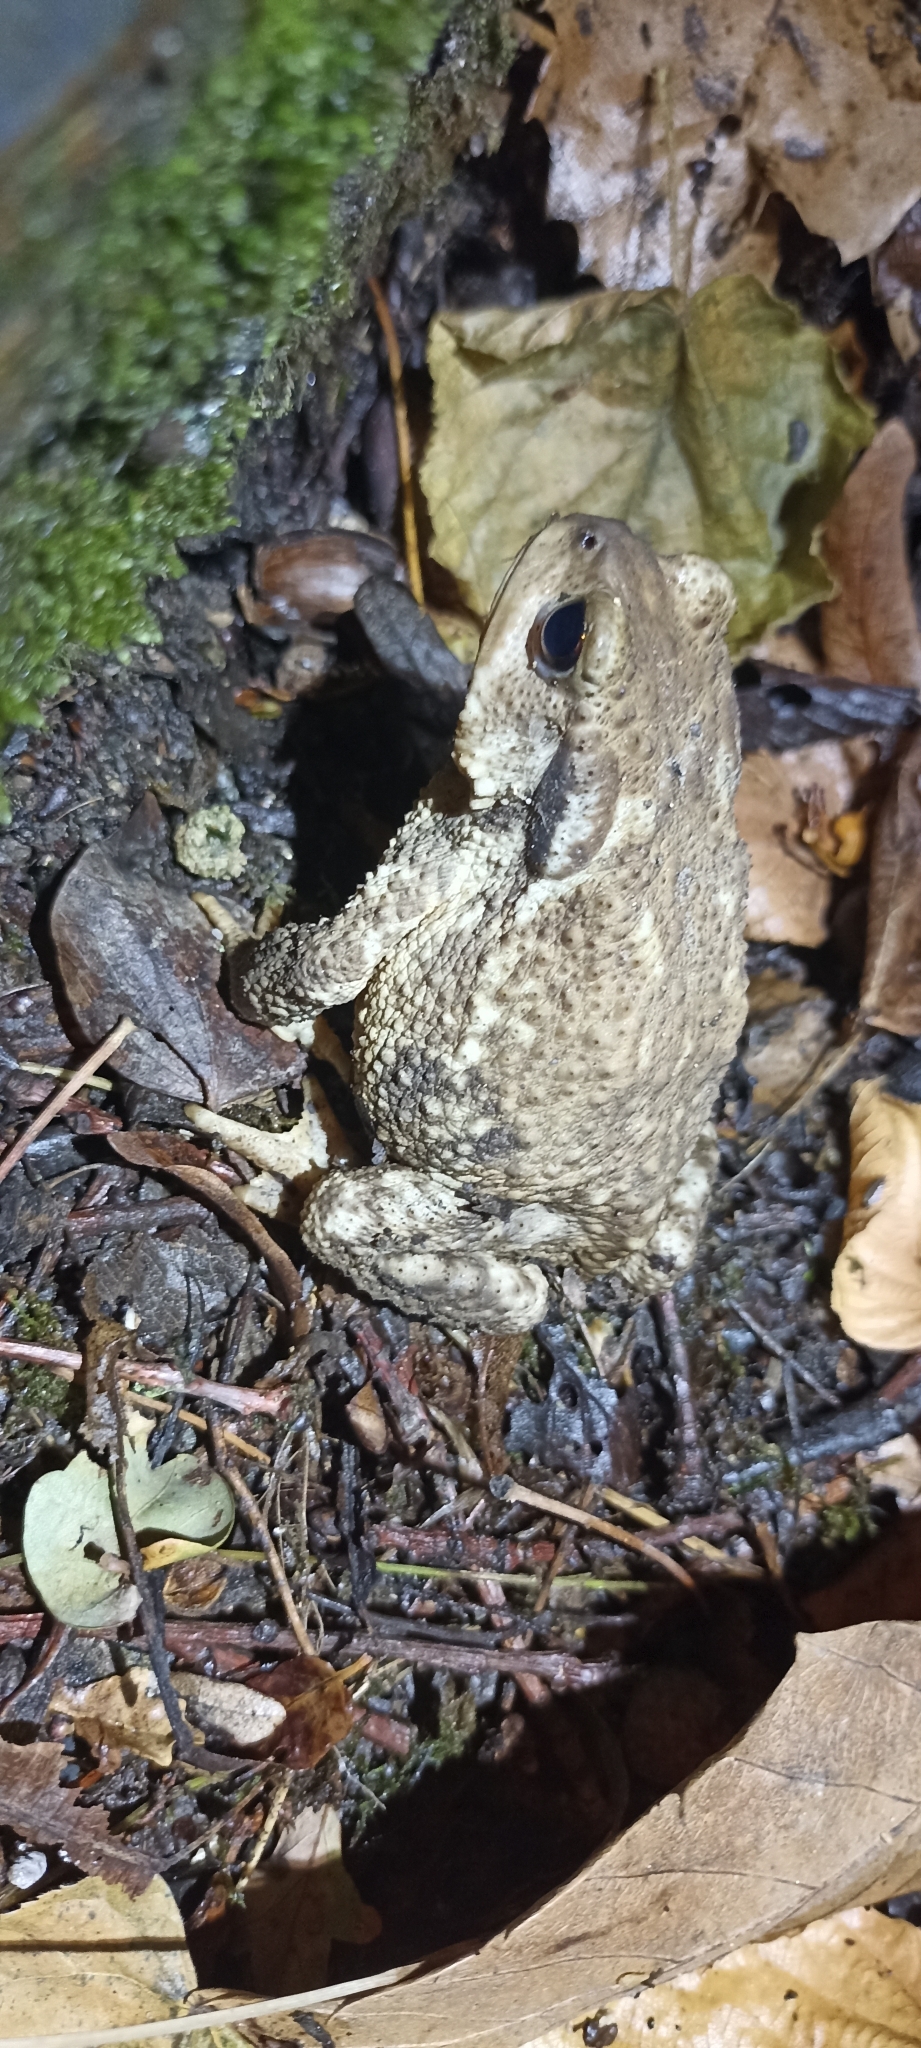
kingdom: Animalia
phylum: Chordata
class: Amphibia
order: Anura
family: Bufonidae
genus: Bufo
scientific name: Bufo spinosus
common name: Western common toad
